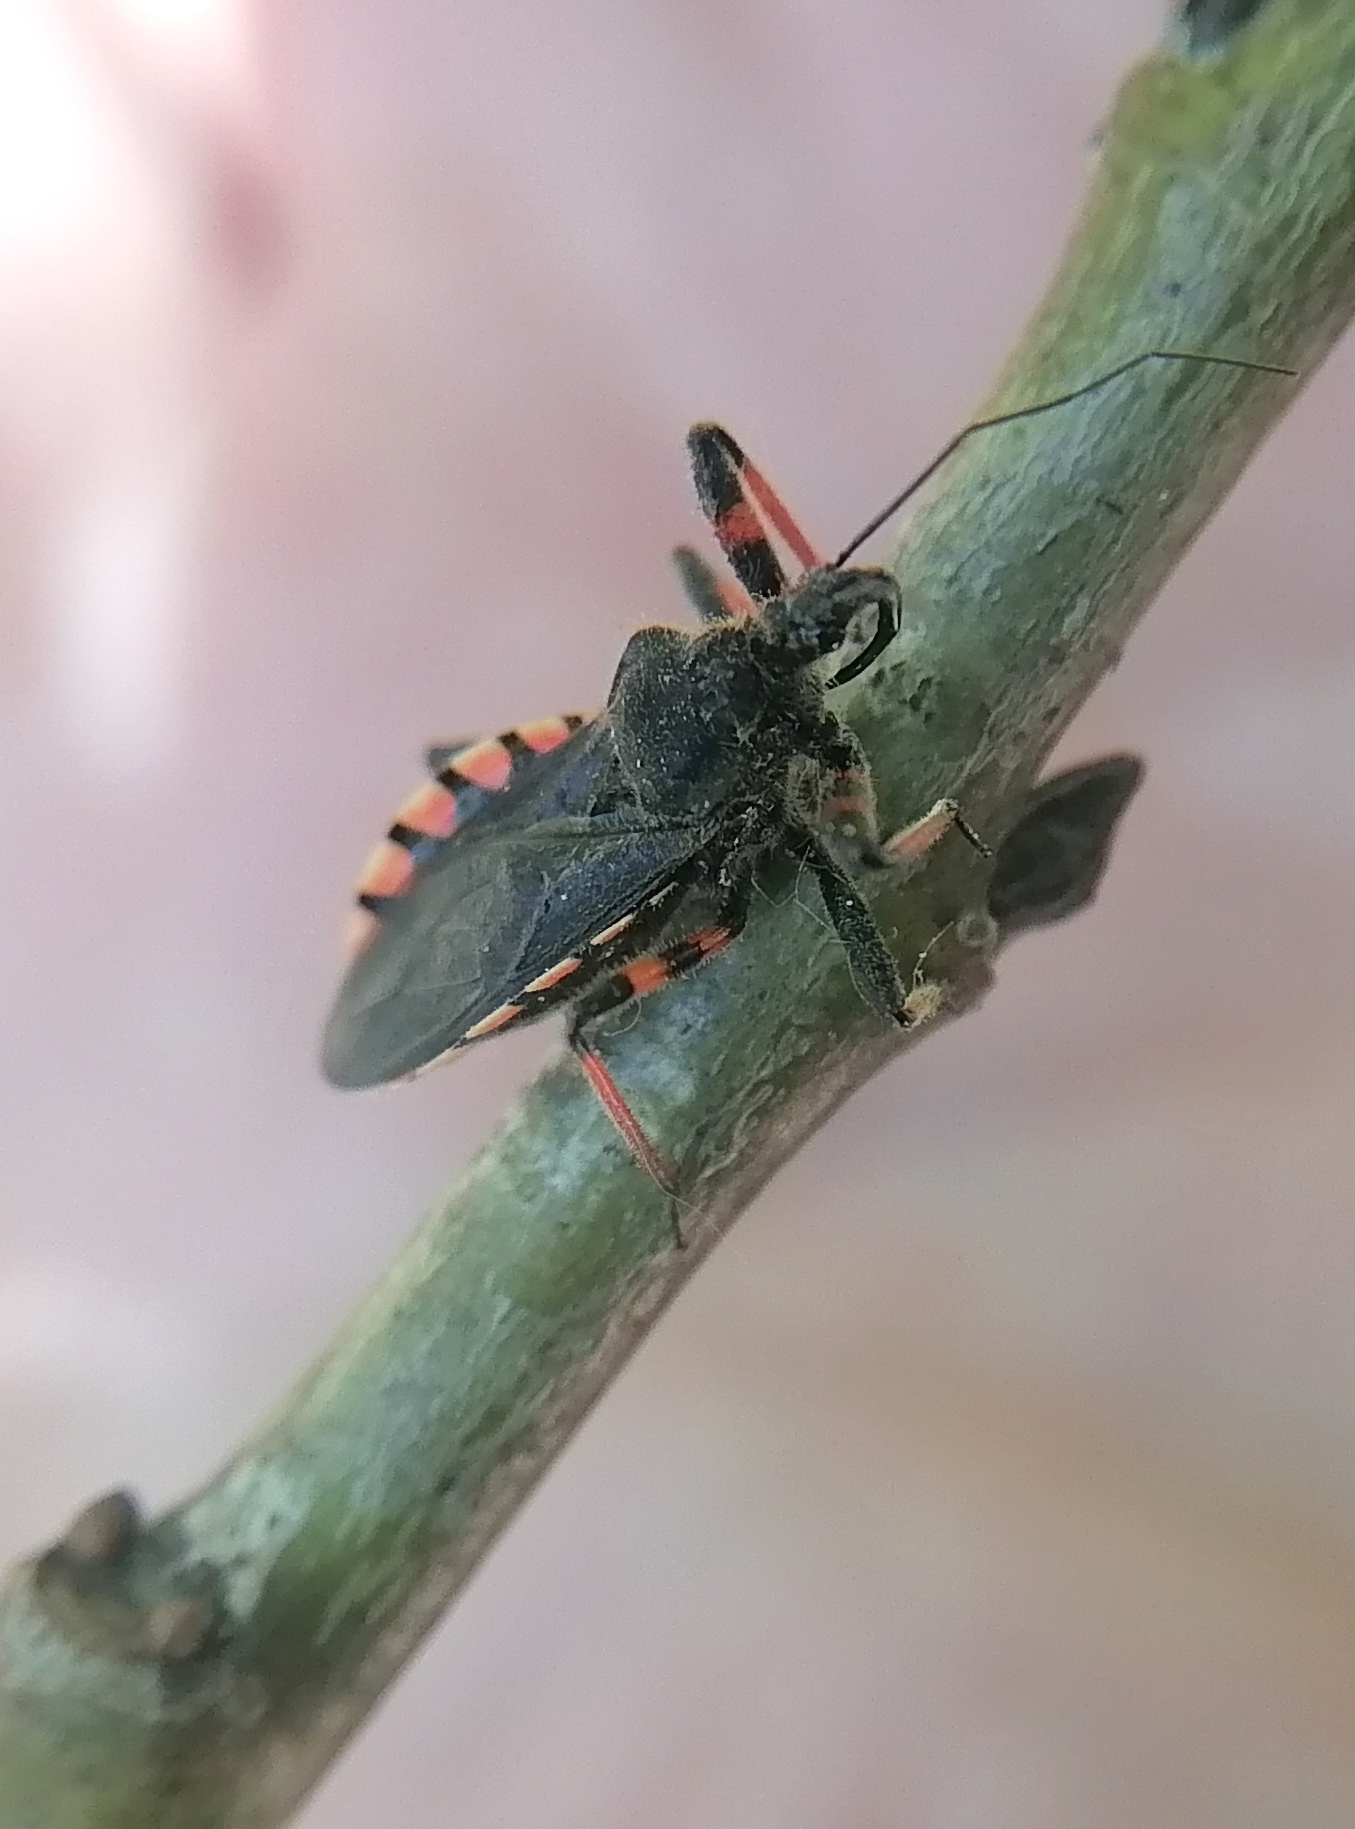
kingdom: Animalia
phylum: Arthropoda
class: Insecta
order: Hemiptera
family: Reduviidae
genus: Rhynocoris
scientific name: Rhynocoris annulatus
